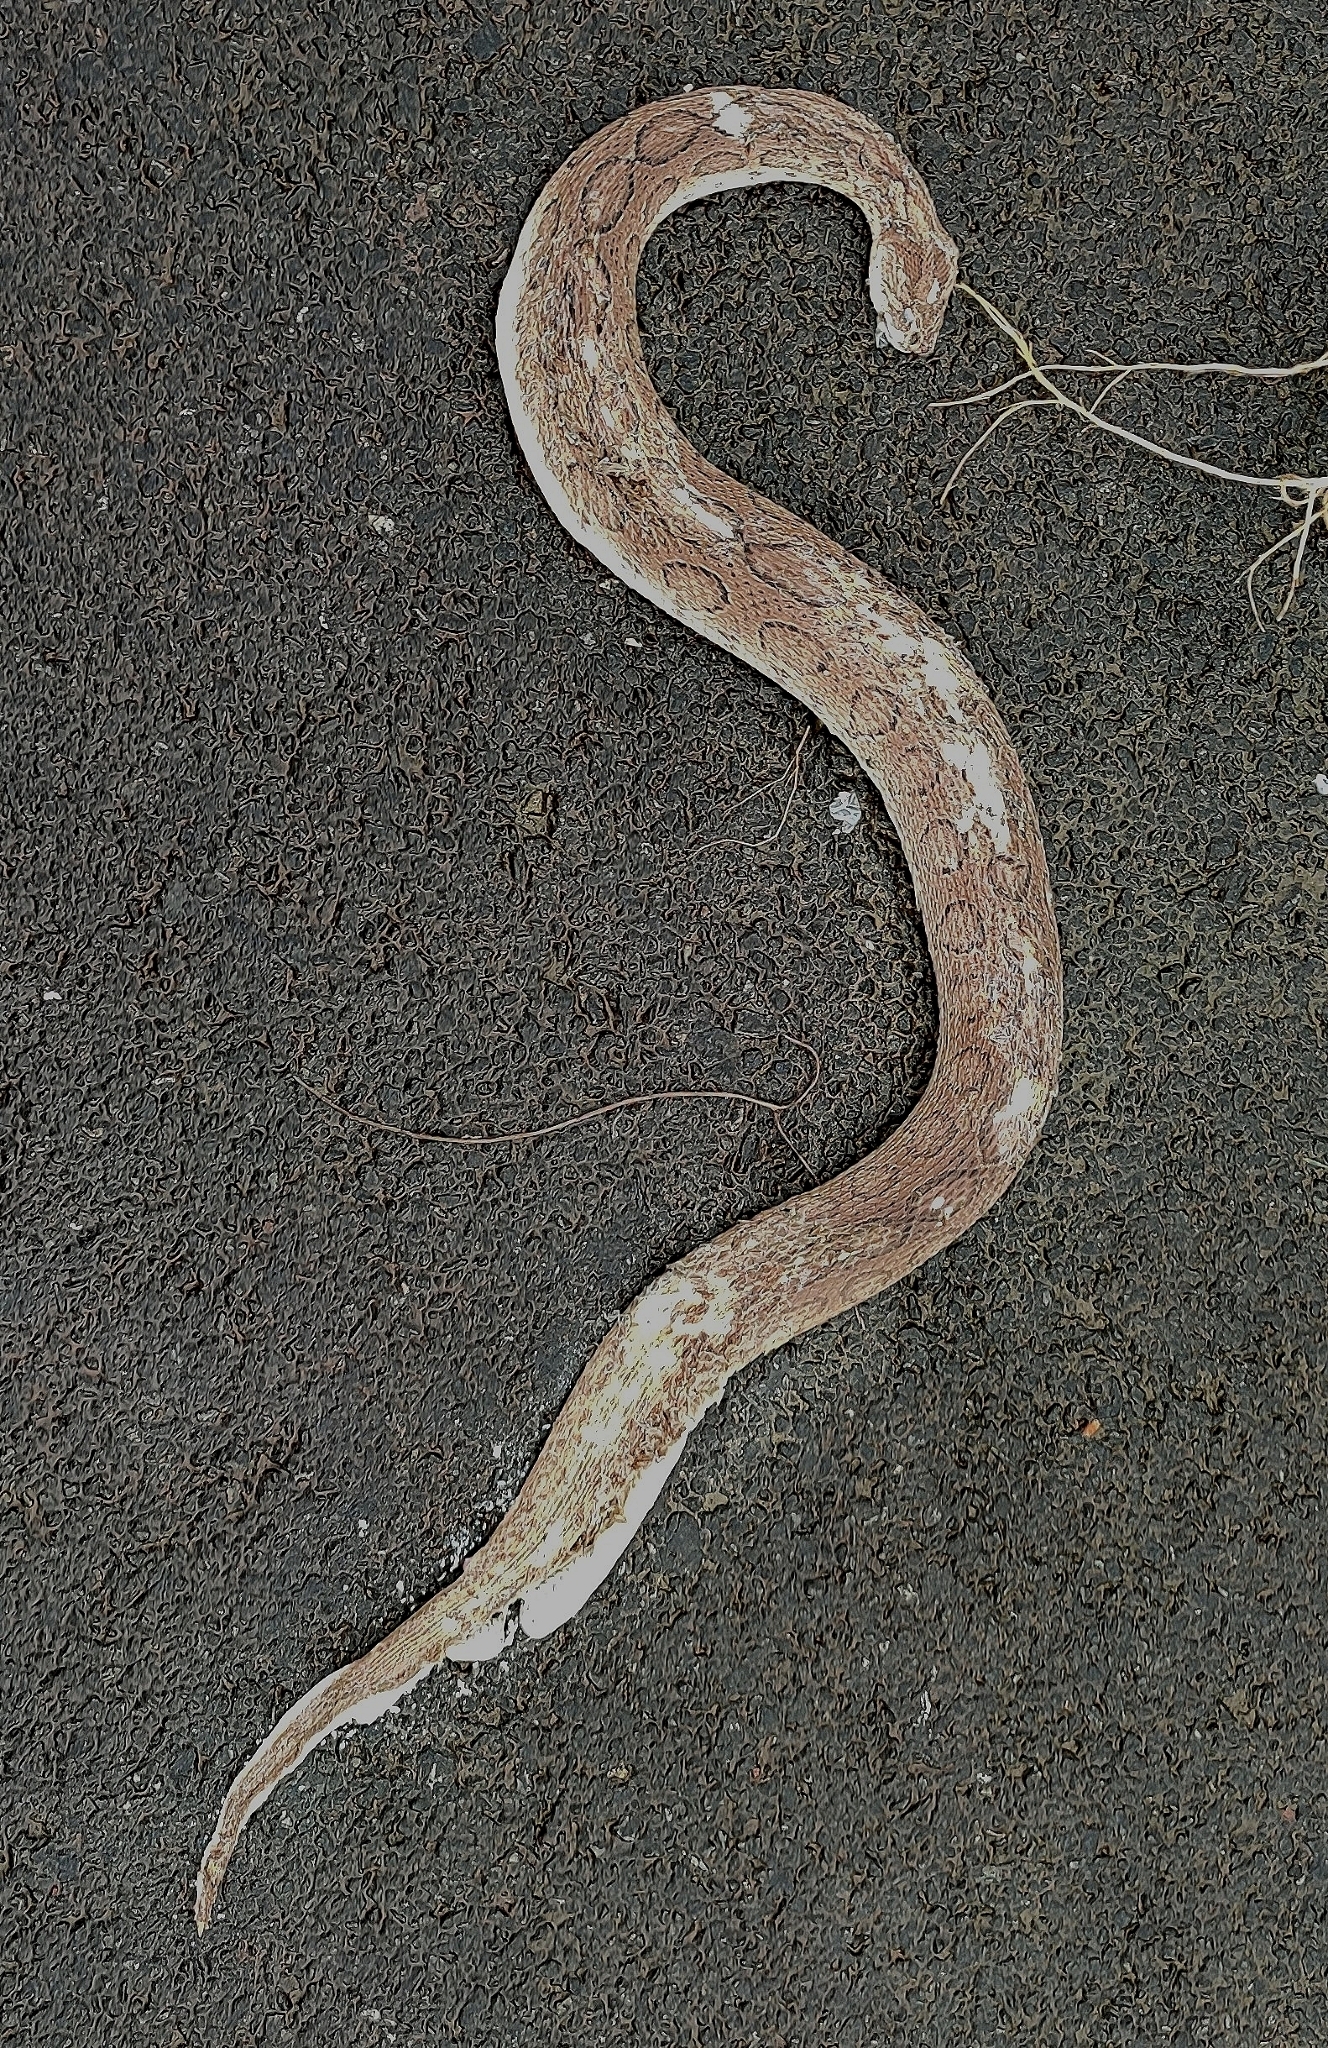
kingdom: Animalia
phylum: Chordata
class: Squamata
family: Viperidae
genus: Daboia
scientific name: Daboia russelii
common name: Western russel’s viper
